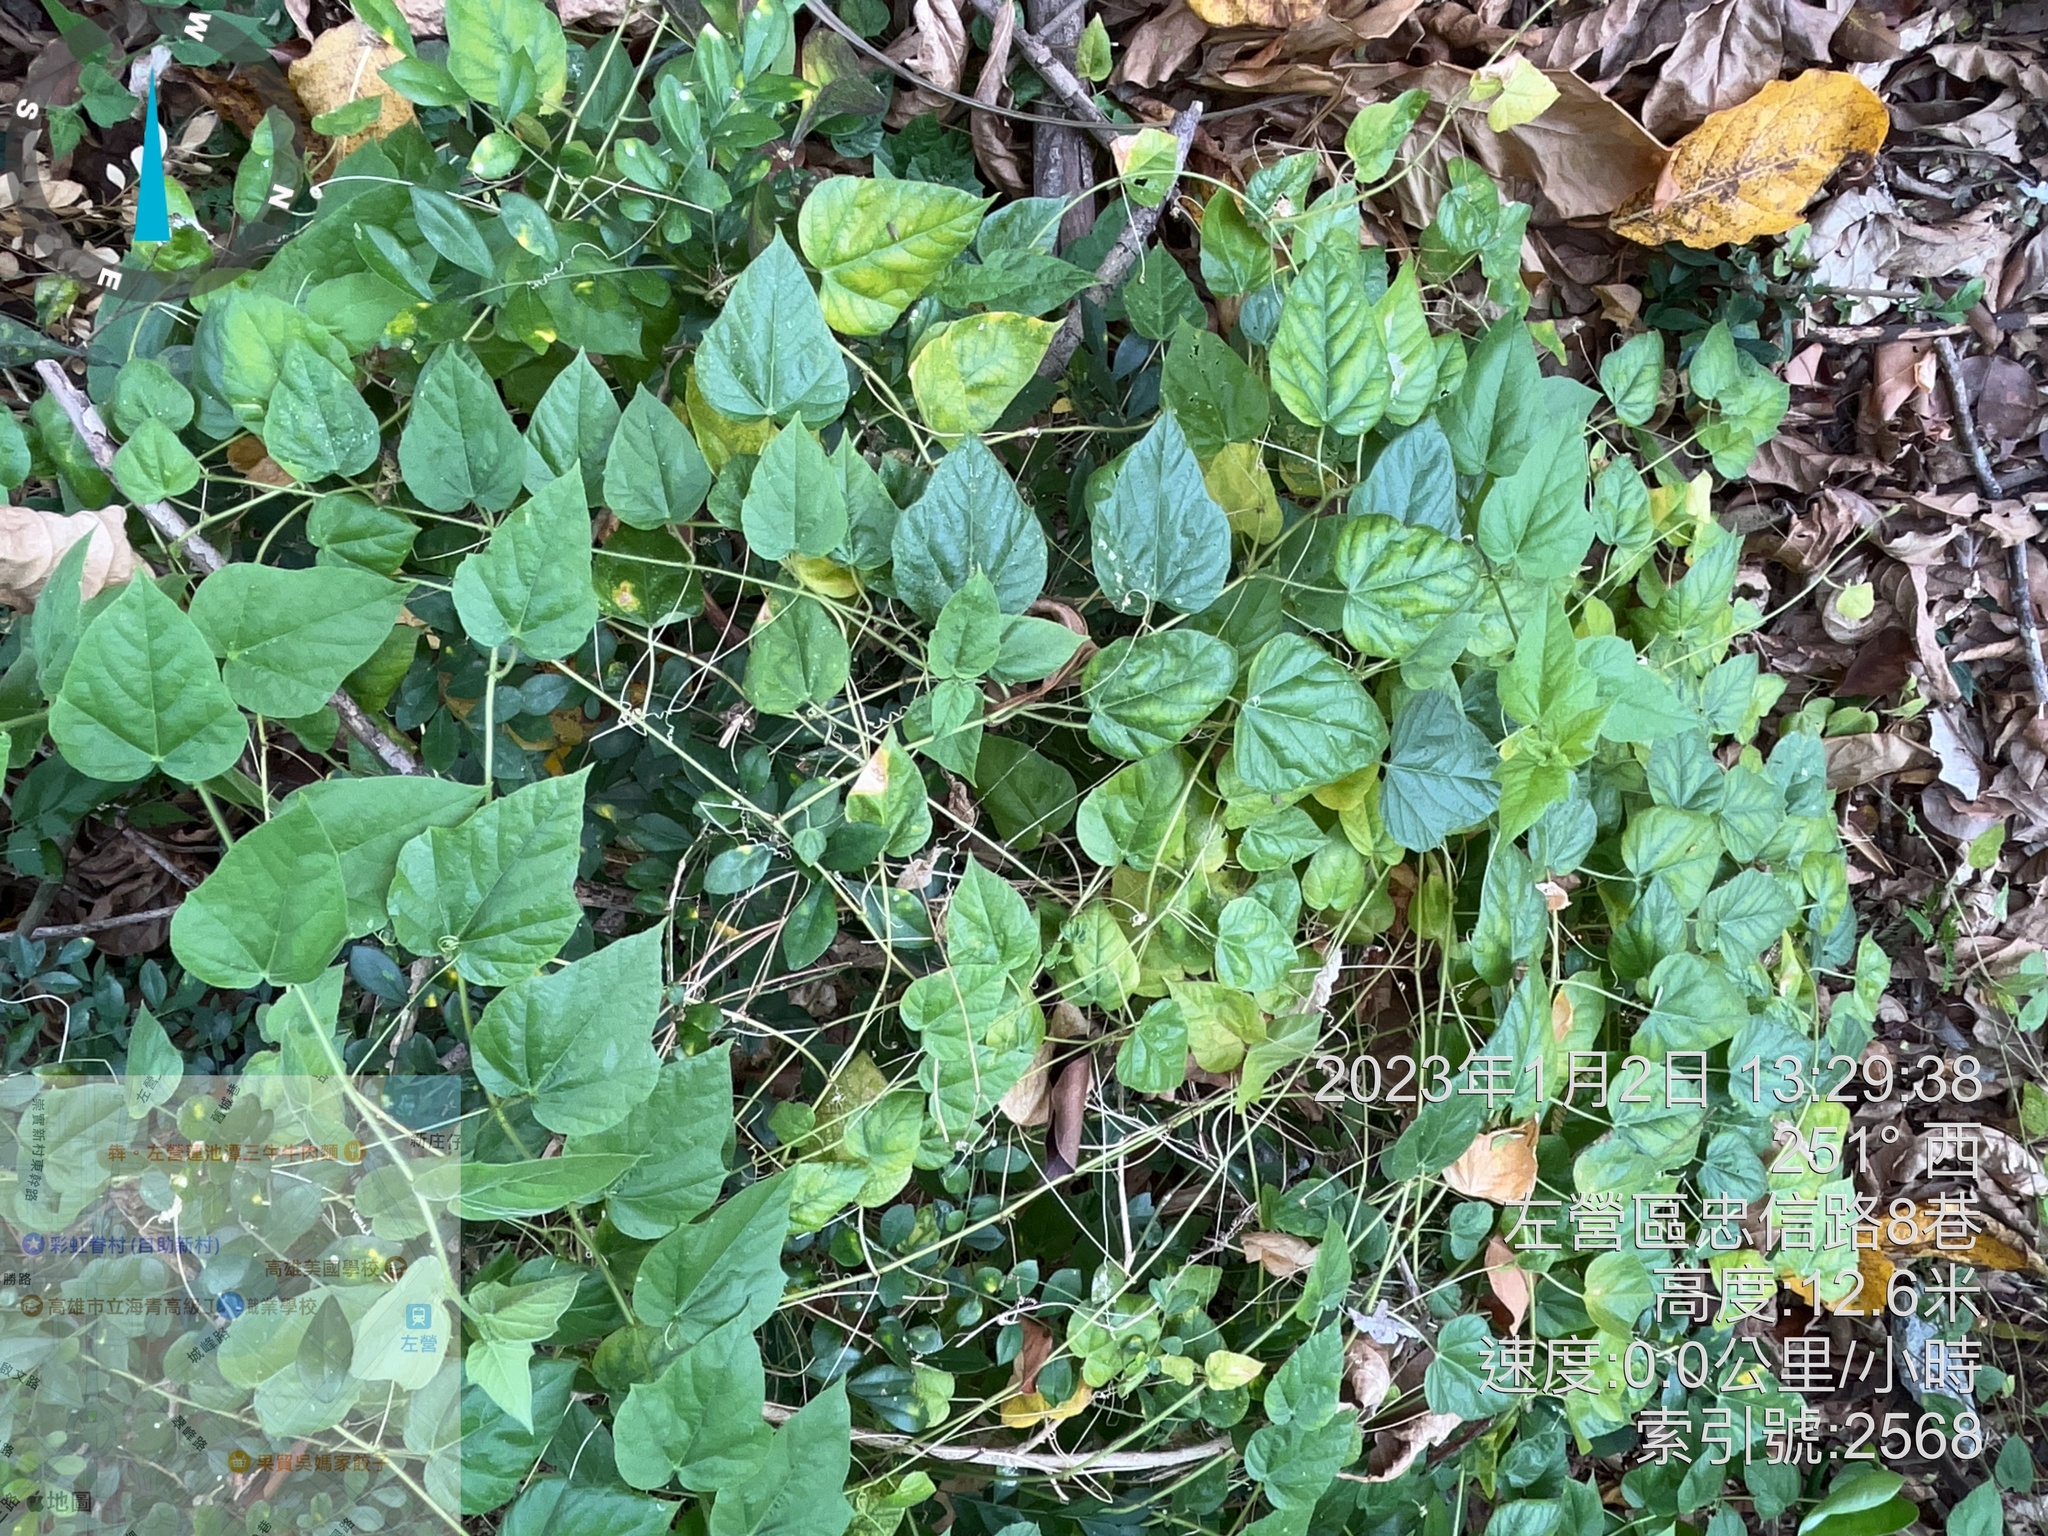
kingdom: Plantae
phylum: Tracheophyta
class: Magnoliopsida
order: Malpighiales
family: Passifloraceae
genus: Passiflora
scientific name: Passiflora vesicaria
